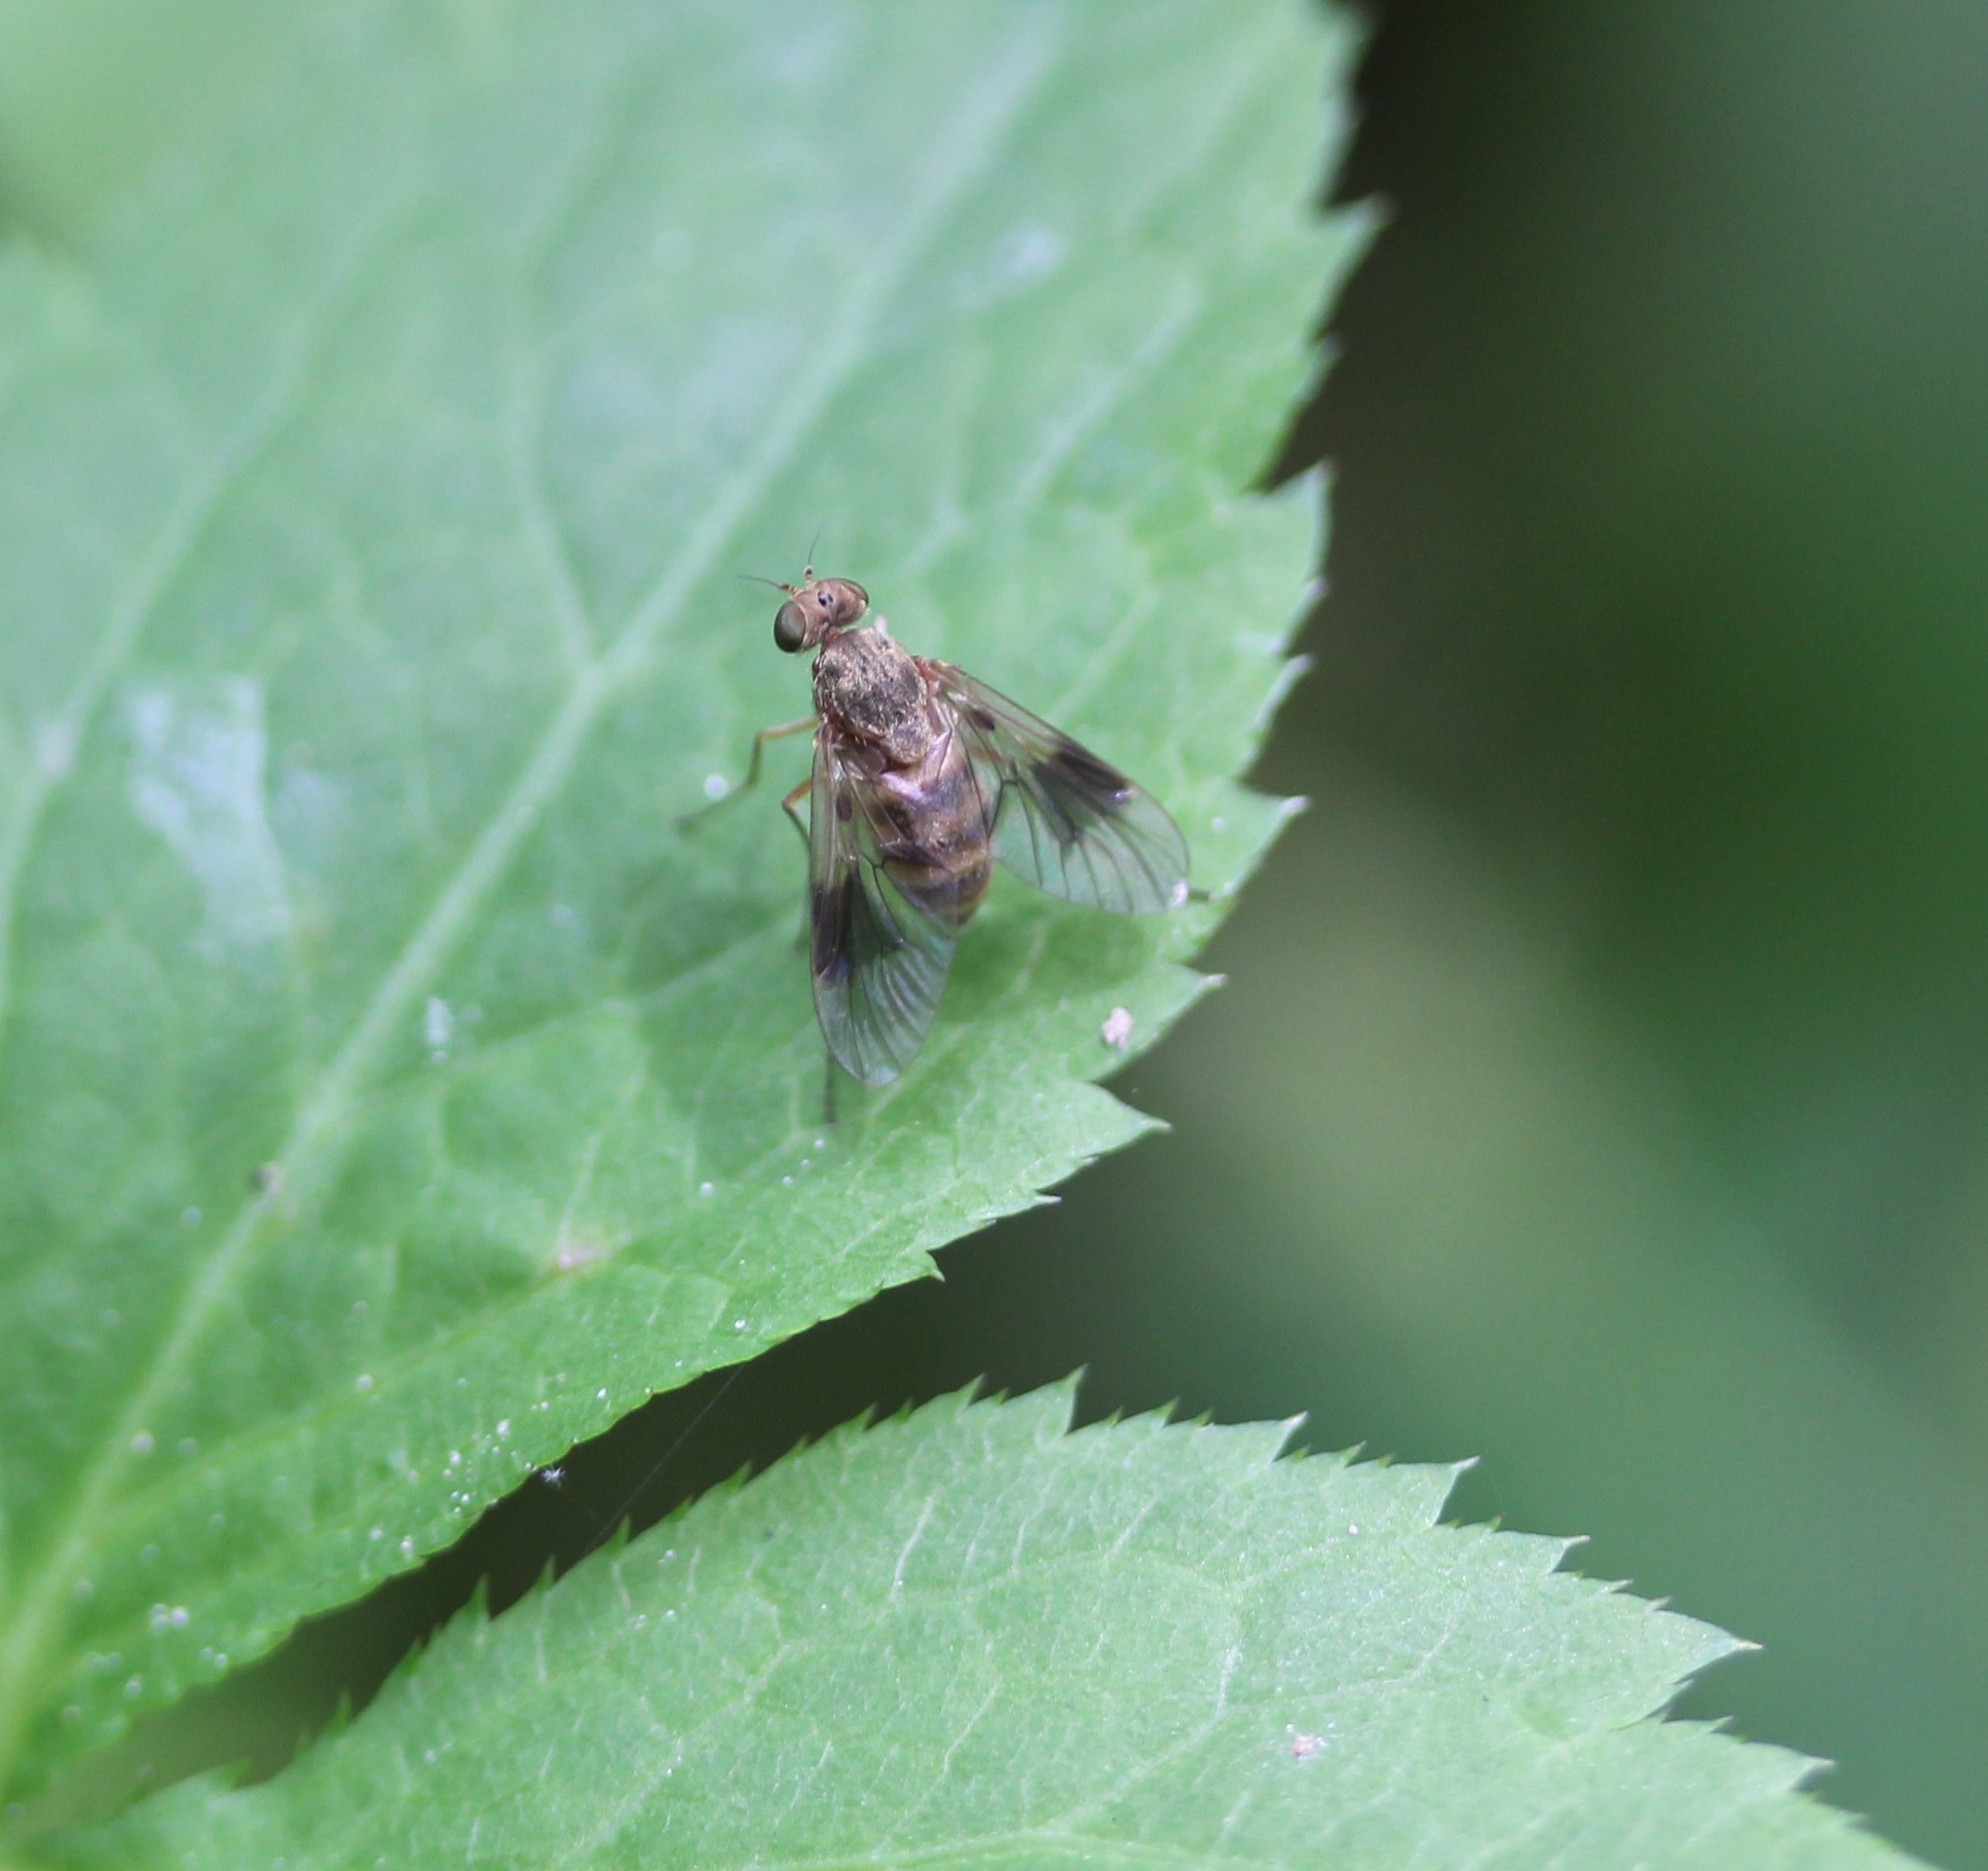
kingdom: Animalia
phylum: Arthropoda
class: Insecta
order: Diptera
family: Rhagionidae
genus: Chrysopilus
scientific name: Chrysopilus quadratus
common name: Quadrate snipe fly
